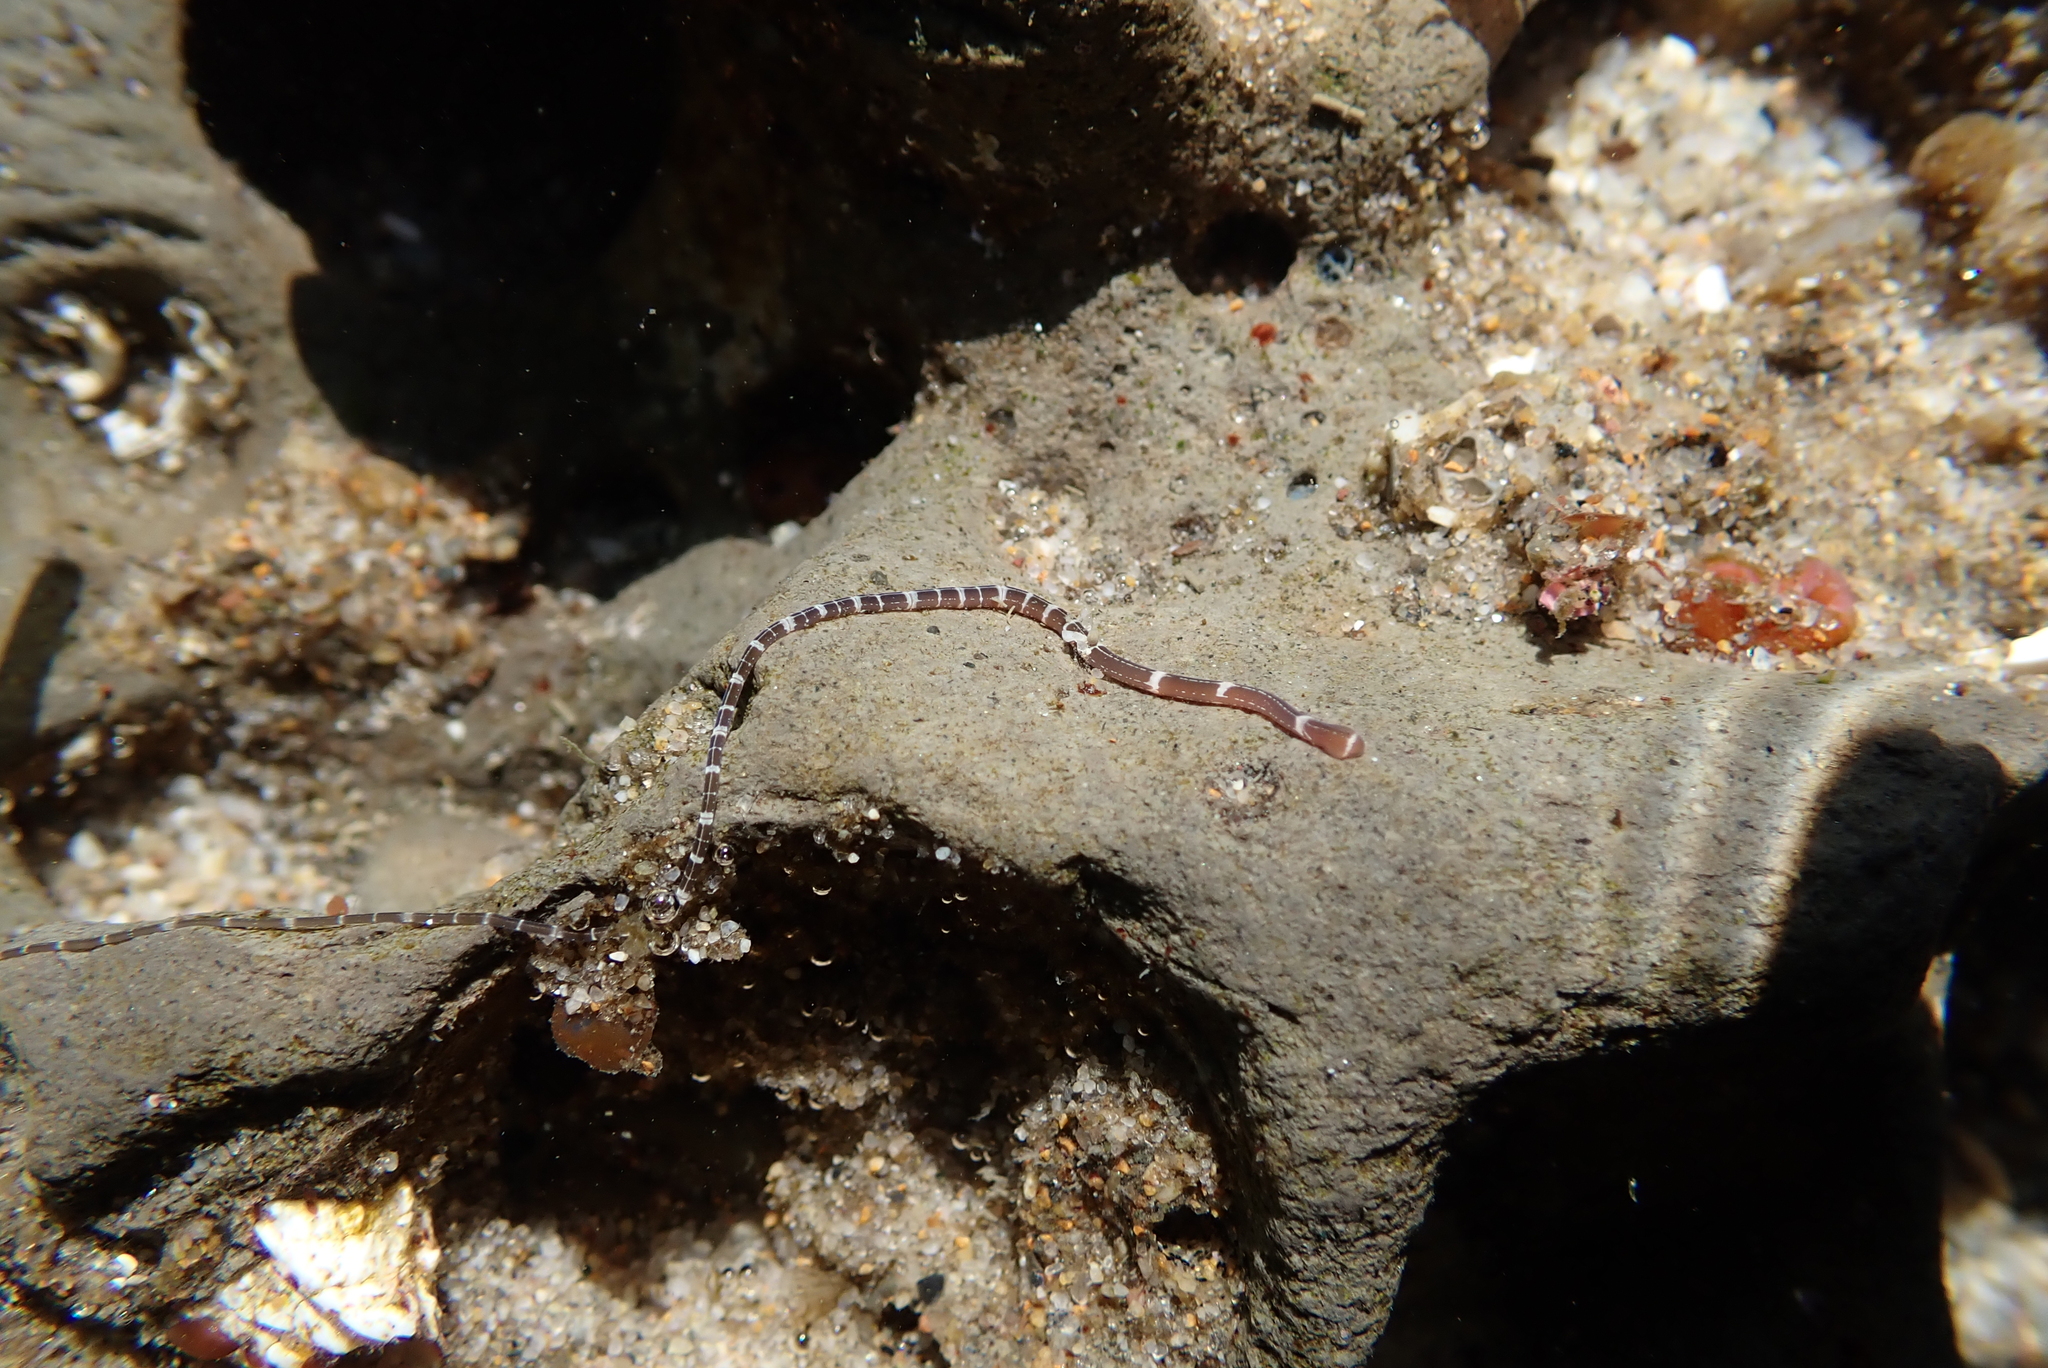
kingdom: Animalia
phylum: Nemertea
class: Palaeonemertea
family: Tubulanidae
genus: Tubulanus
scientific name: Tubulanus sexlineatus
